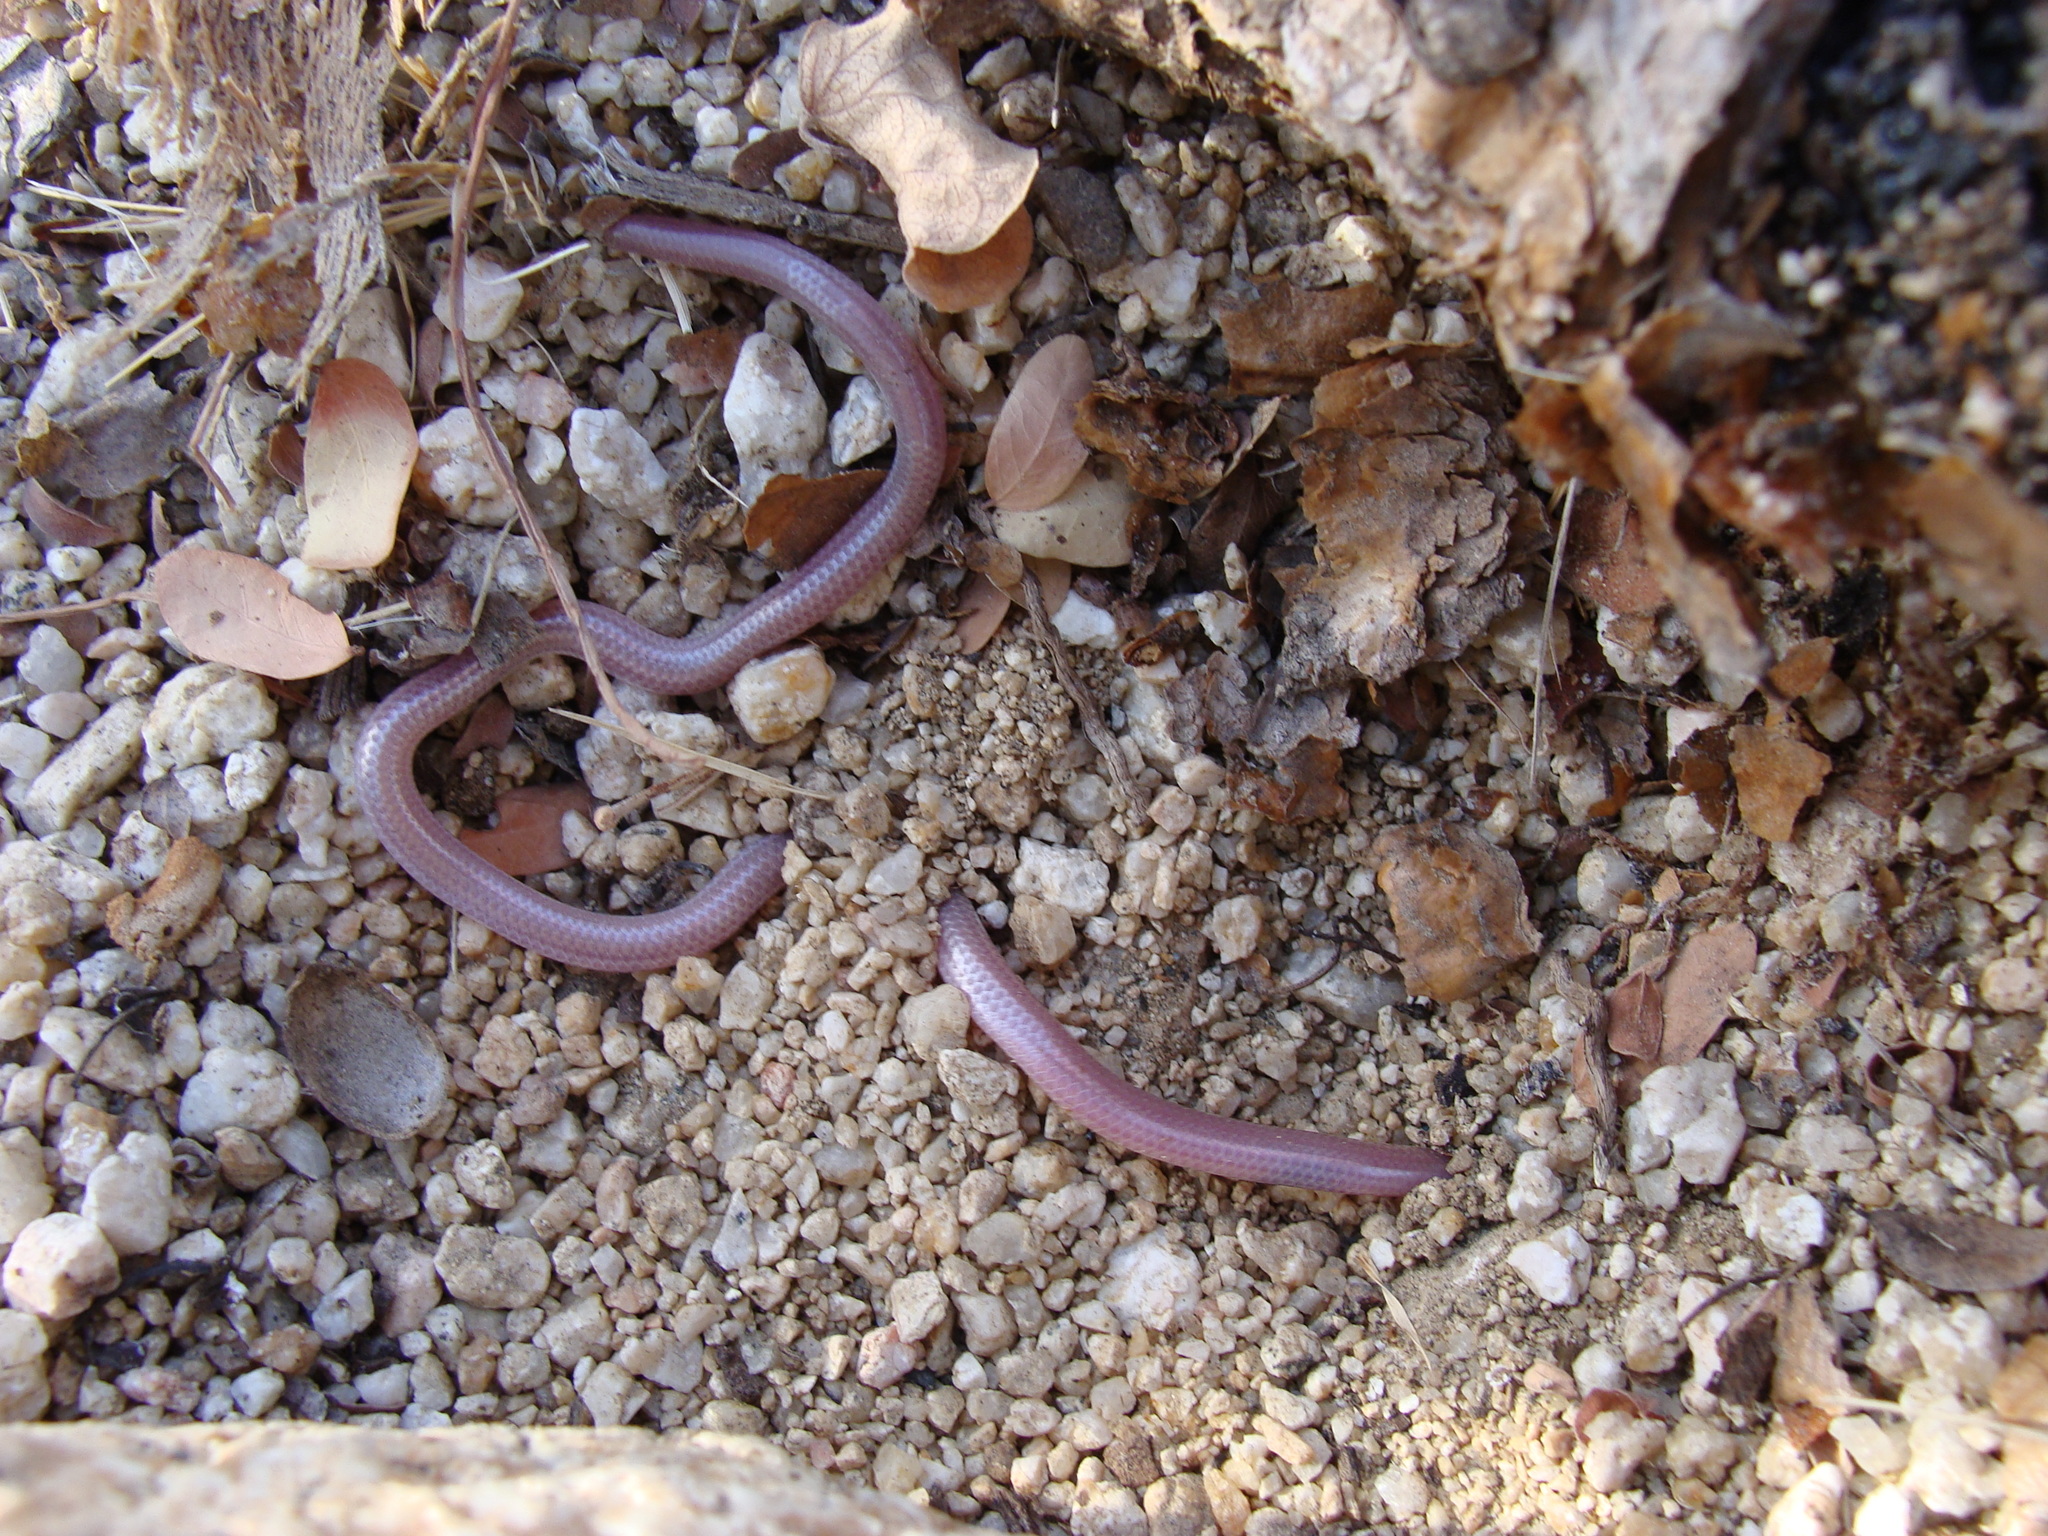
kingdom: Animalia
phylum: Chordata
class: Squamata
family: Leptotyphlopidae
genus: Rena
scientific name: Rena boettgeri
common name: Cerralvo island threadsnake
